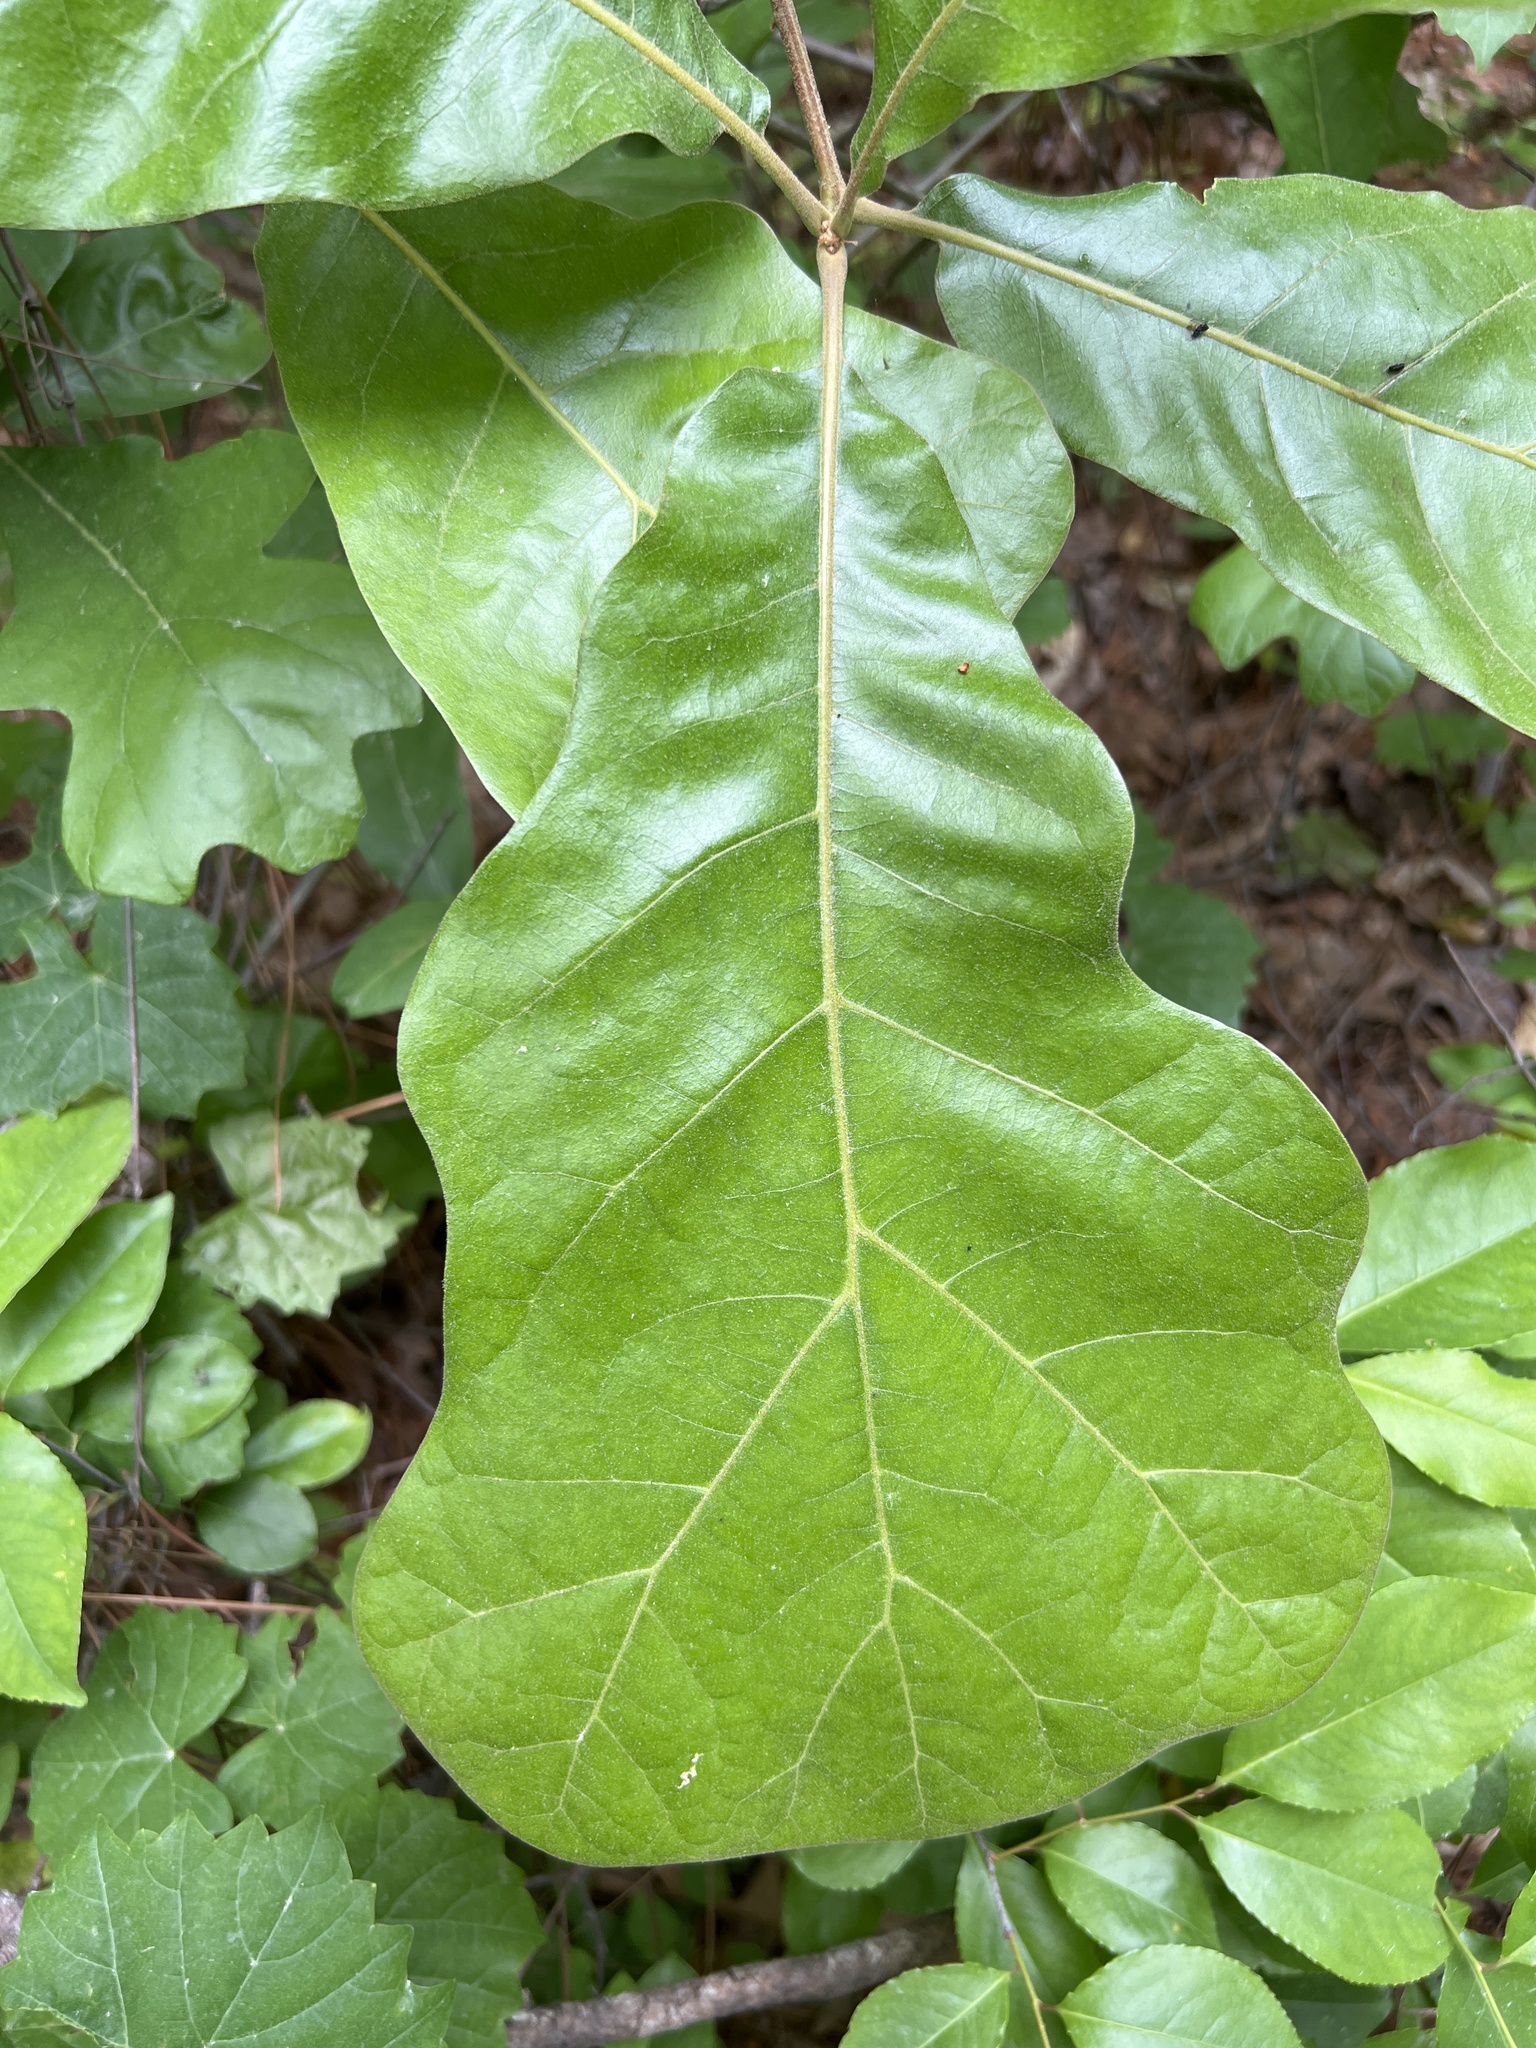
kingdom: Plantae
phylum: Tracheophyta
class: Magnoliopsida
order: Fagales
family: Fagaceae
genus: Quercus
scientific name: Quercus marilandica
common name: Blackjack oak
